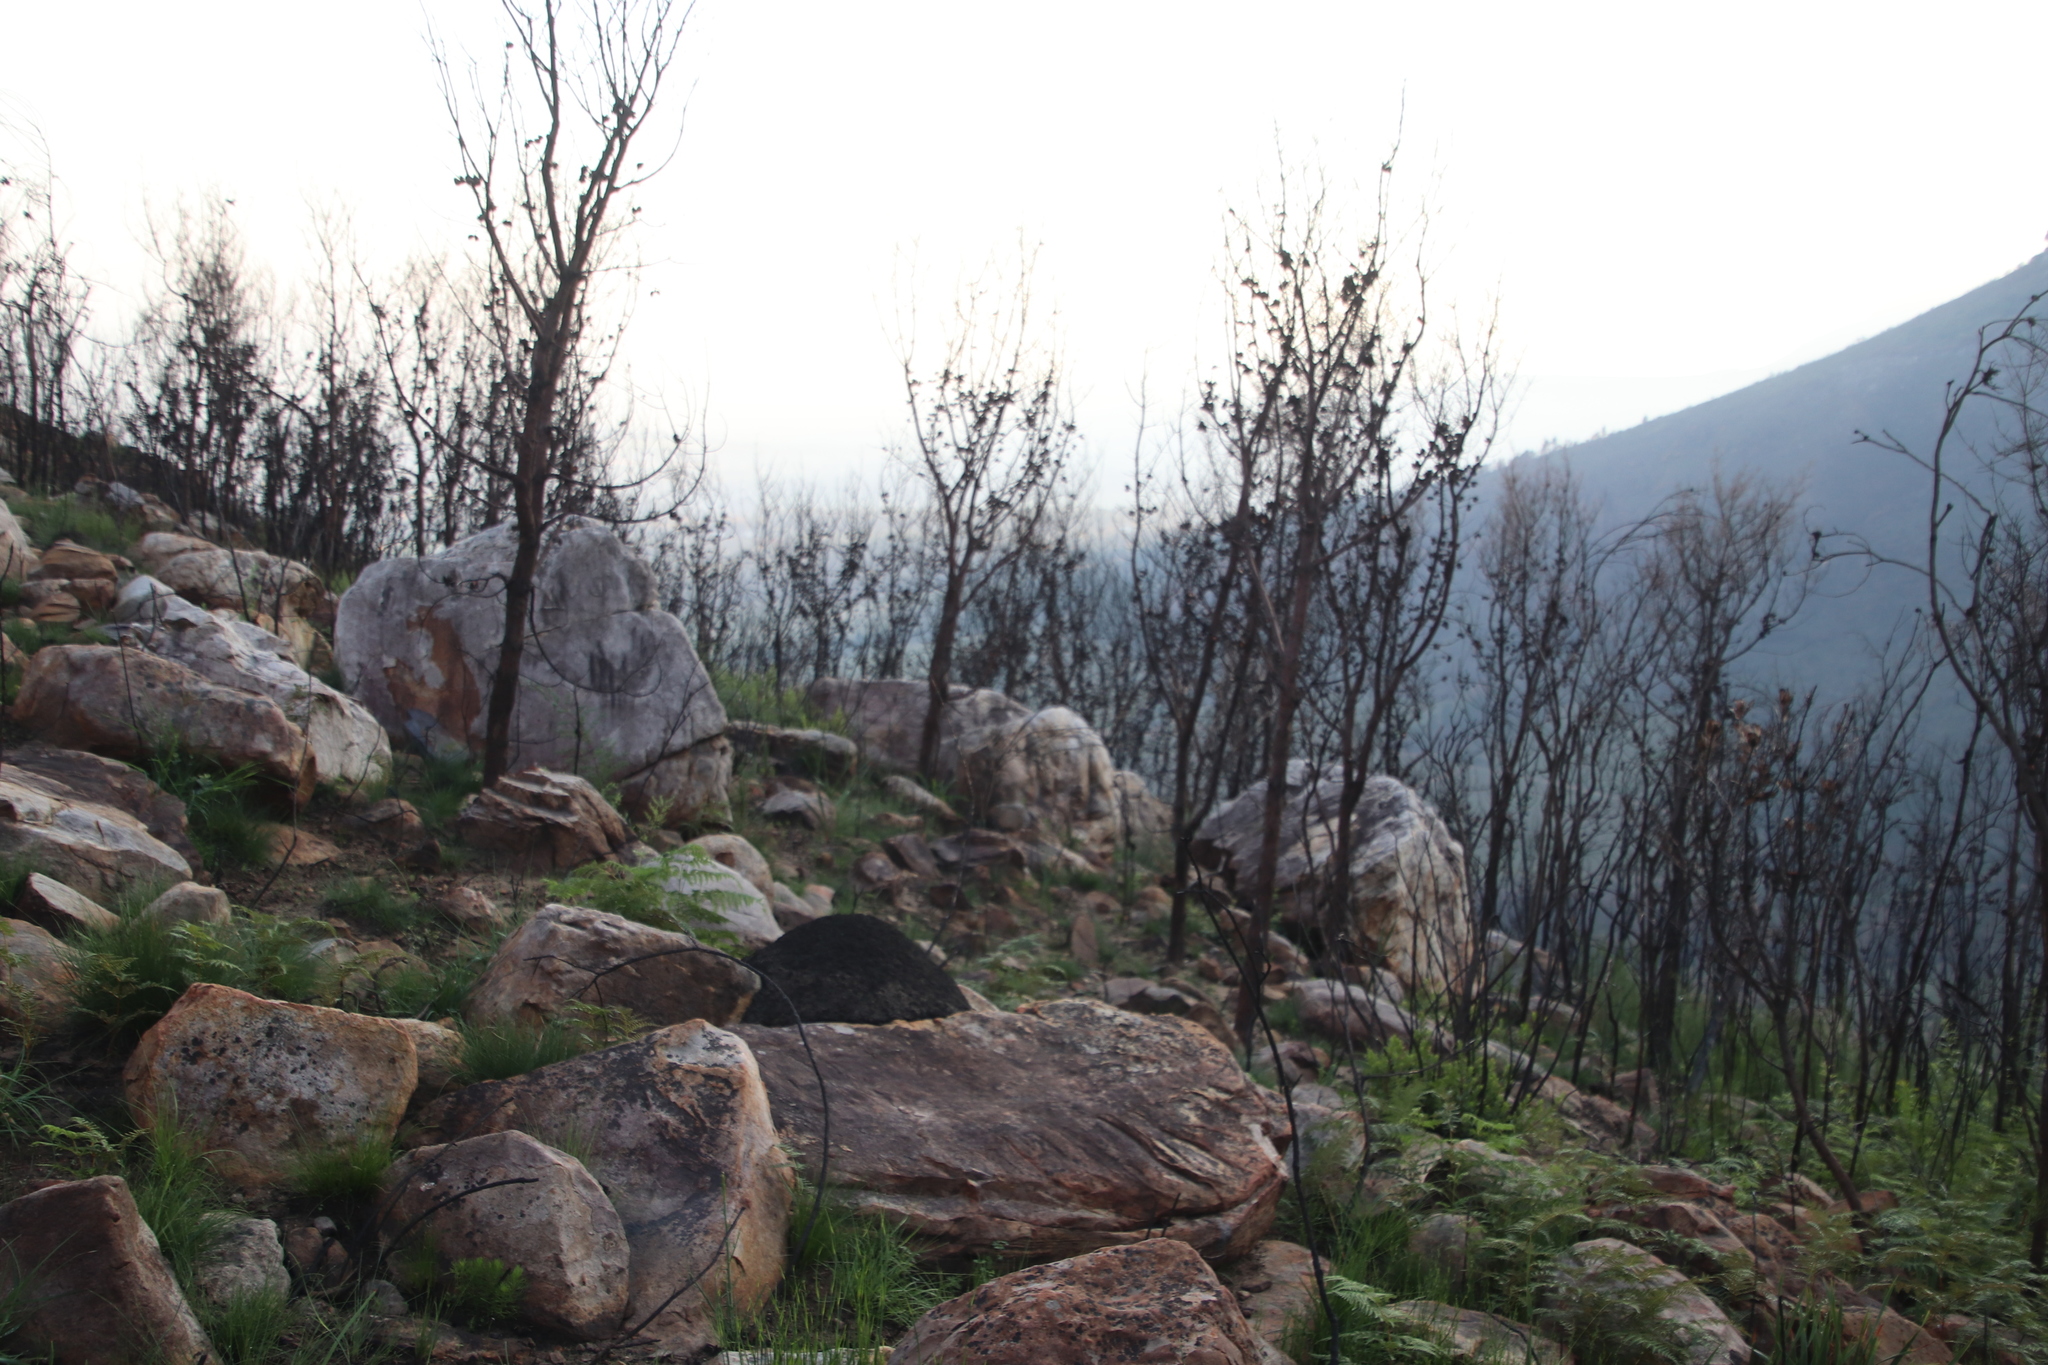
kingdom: Plantae
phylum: Tracheophyta
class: Magnoliopsida
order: Proteales
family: Proteaceae
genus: Hakea
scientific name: Hakea sericea
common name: Needle bush
